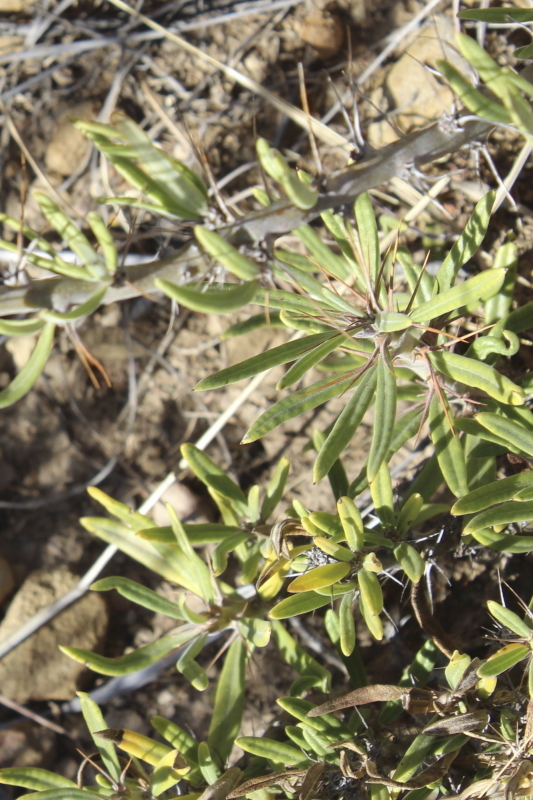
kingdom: Plantae
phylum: Tracheophyta
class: Magnoliopsida
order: Gentianales
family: Apocynaceae
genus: Pachypodium
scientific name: Pachypodium succulentum
